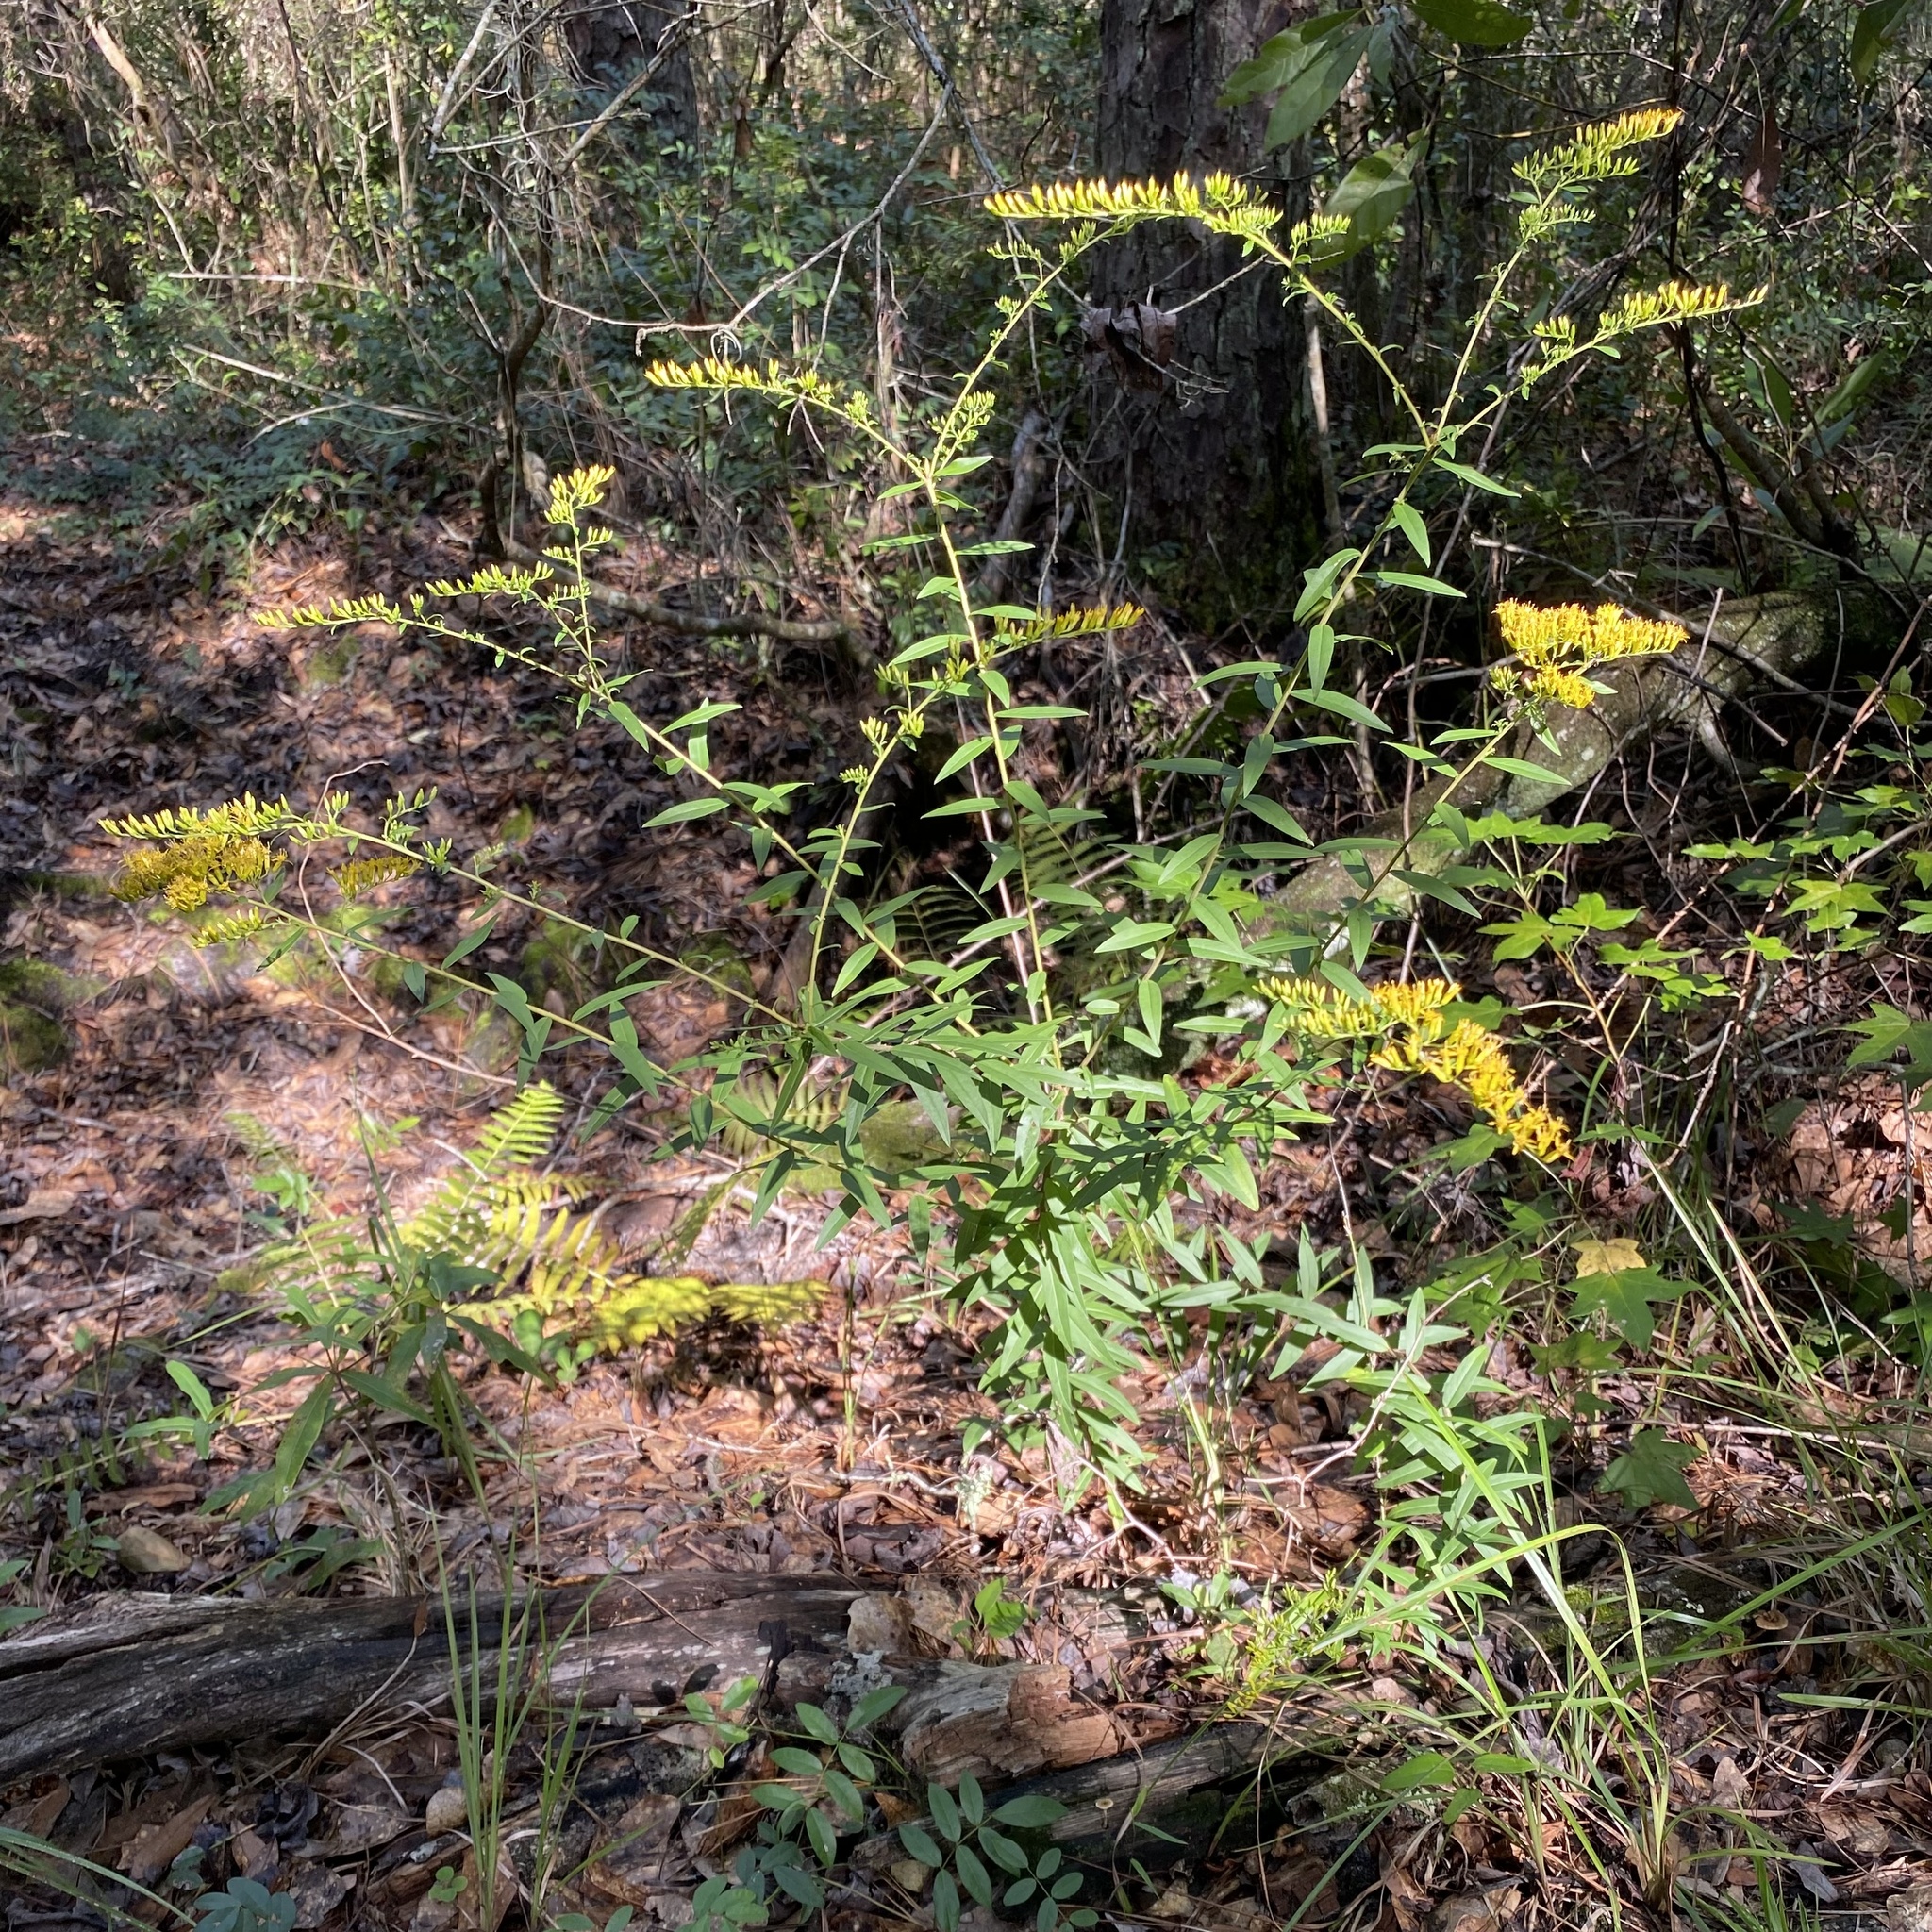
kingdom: Plantae
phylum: Tracheophyta
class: Magnoliopsida
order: Asterales
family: Asteraceae
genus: Solidago
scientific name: Solidago chapmanii
